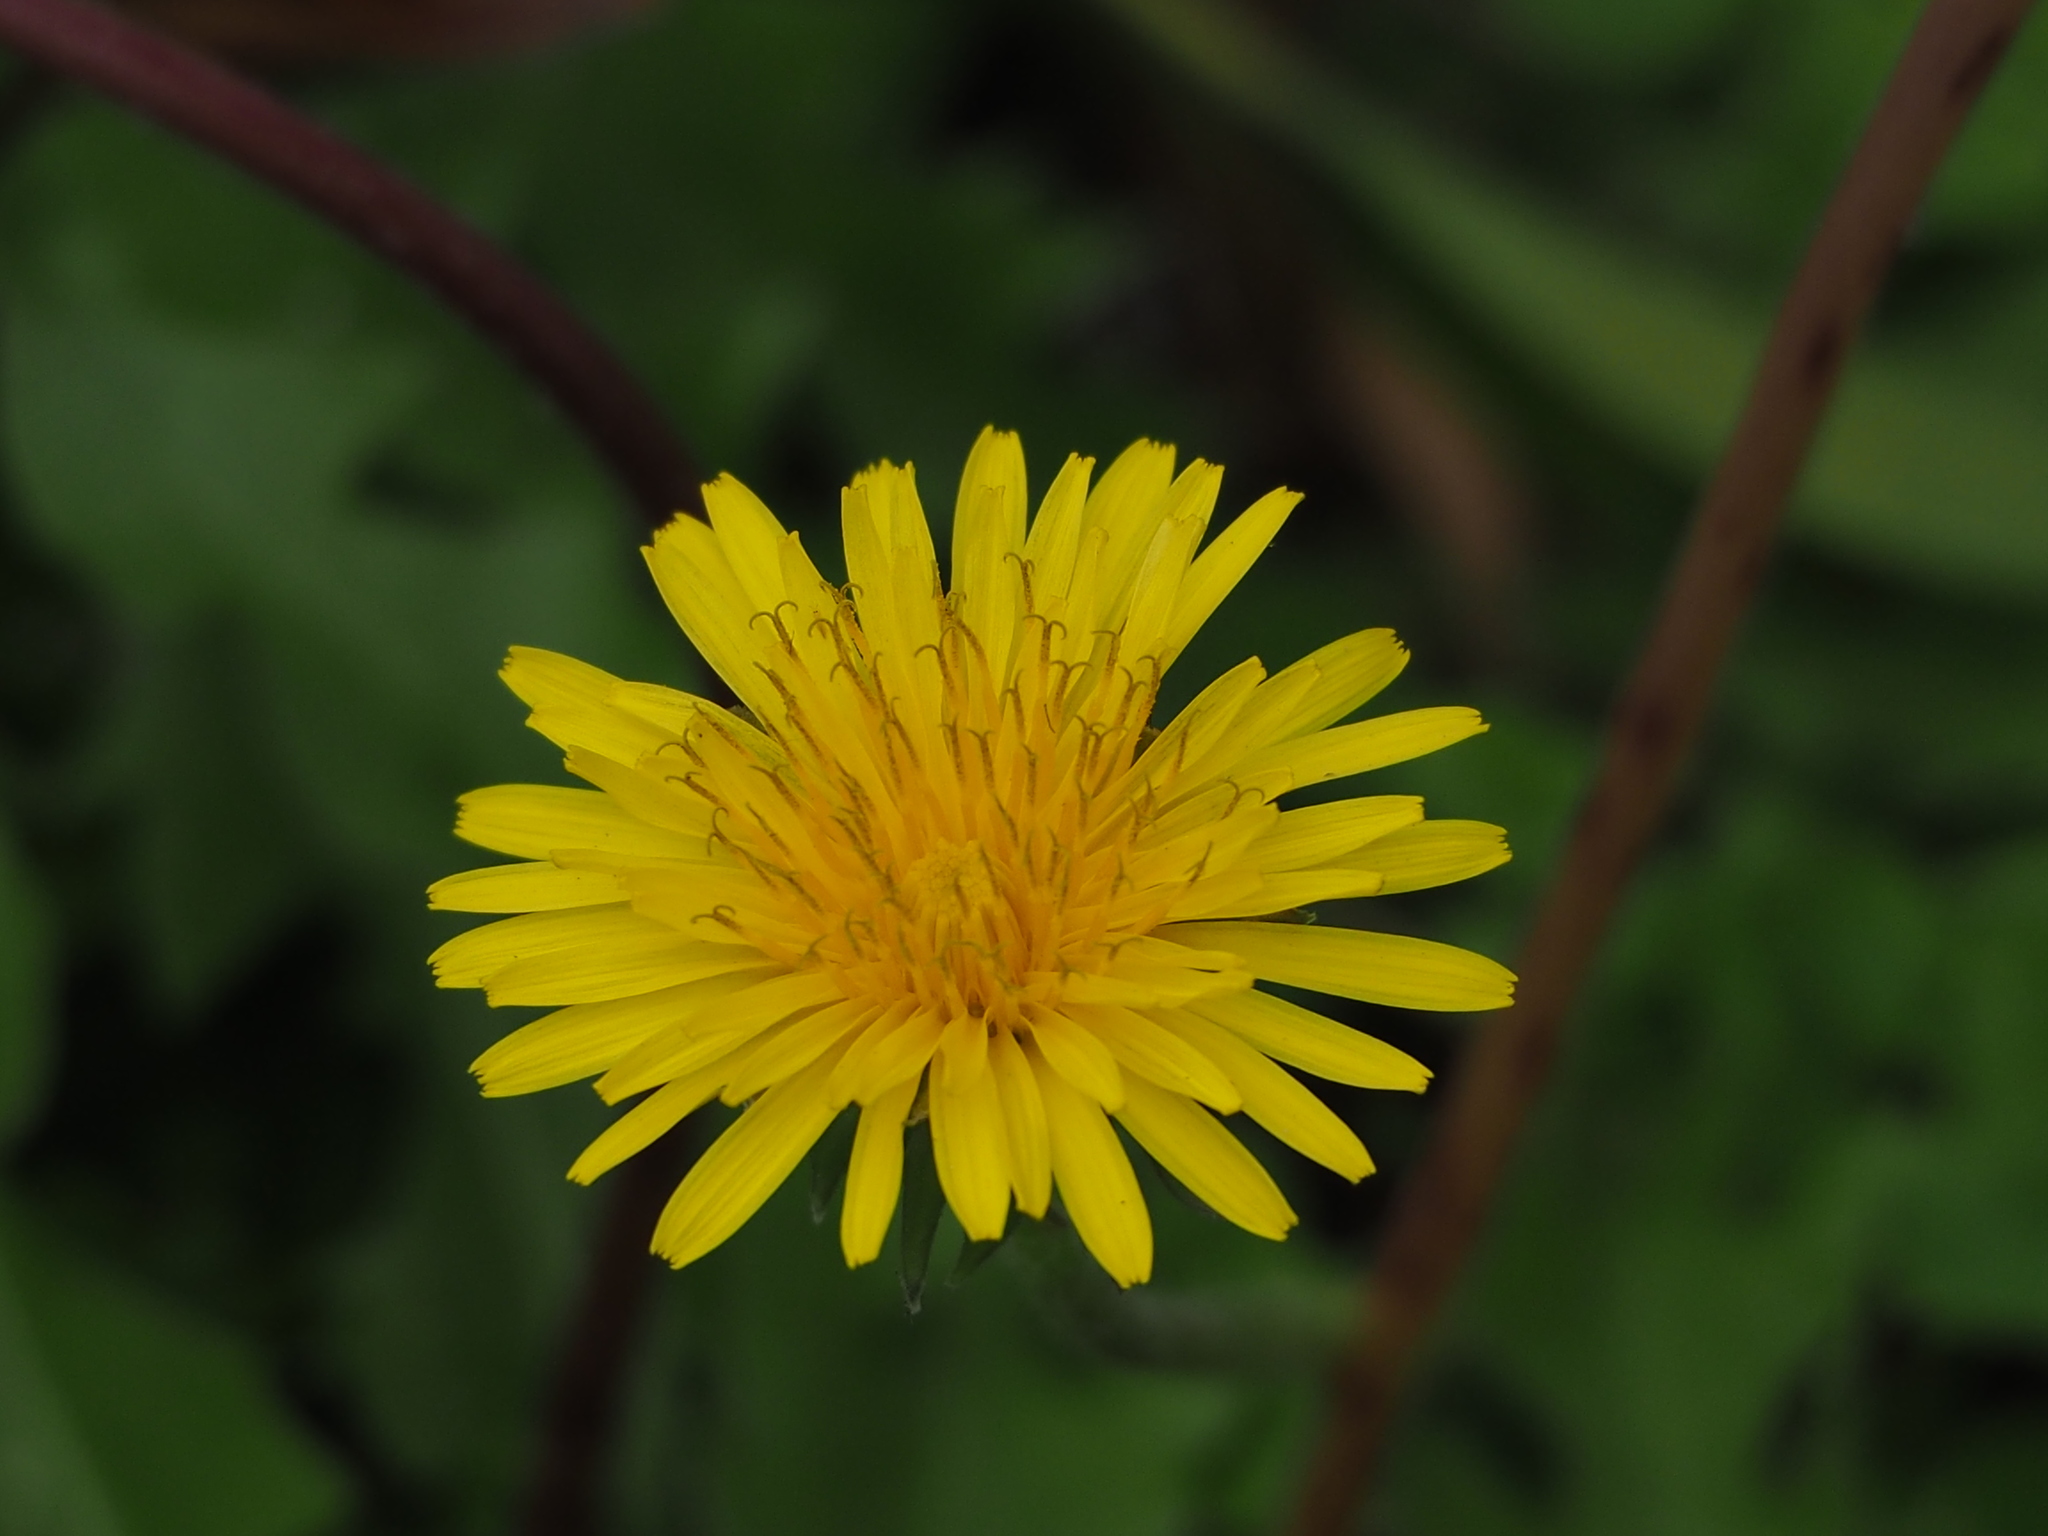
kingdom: Plantae
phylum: Tracheophyta
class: Magnoliopsida
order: Asterales
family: Asteraceae
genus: Taraxacum
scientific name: Taraxacum officinale
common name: Common dandelion
